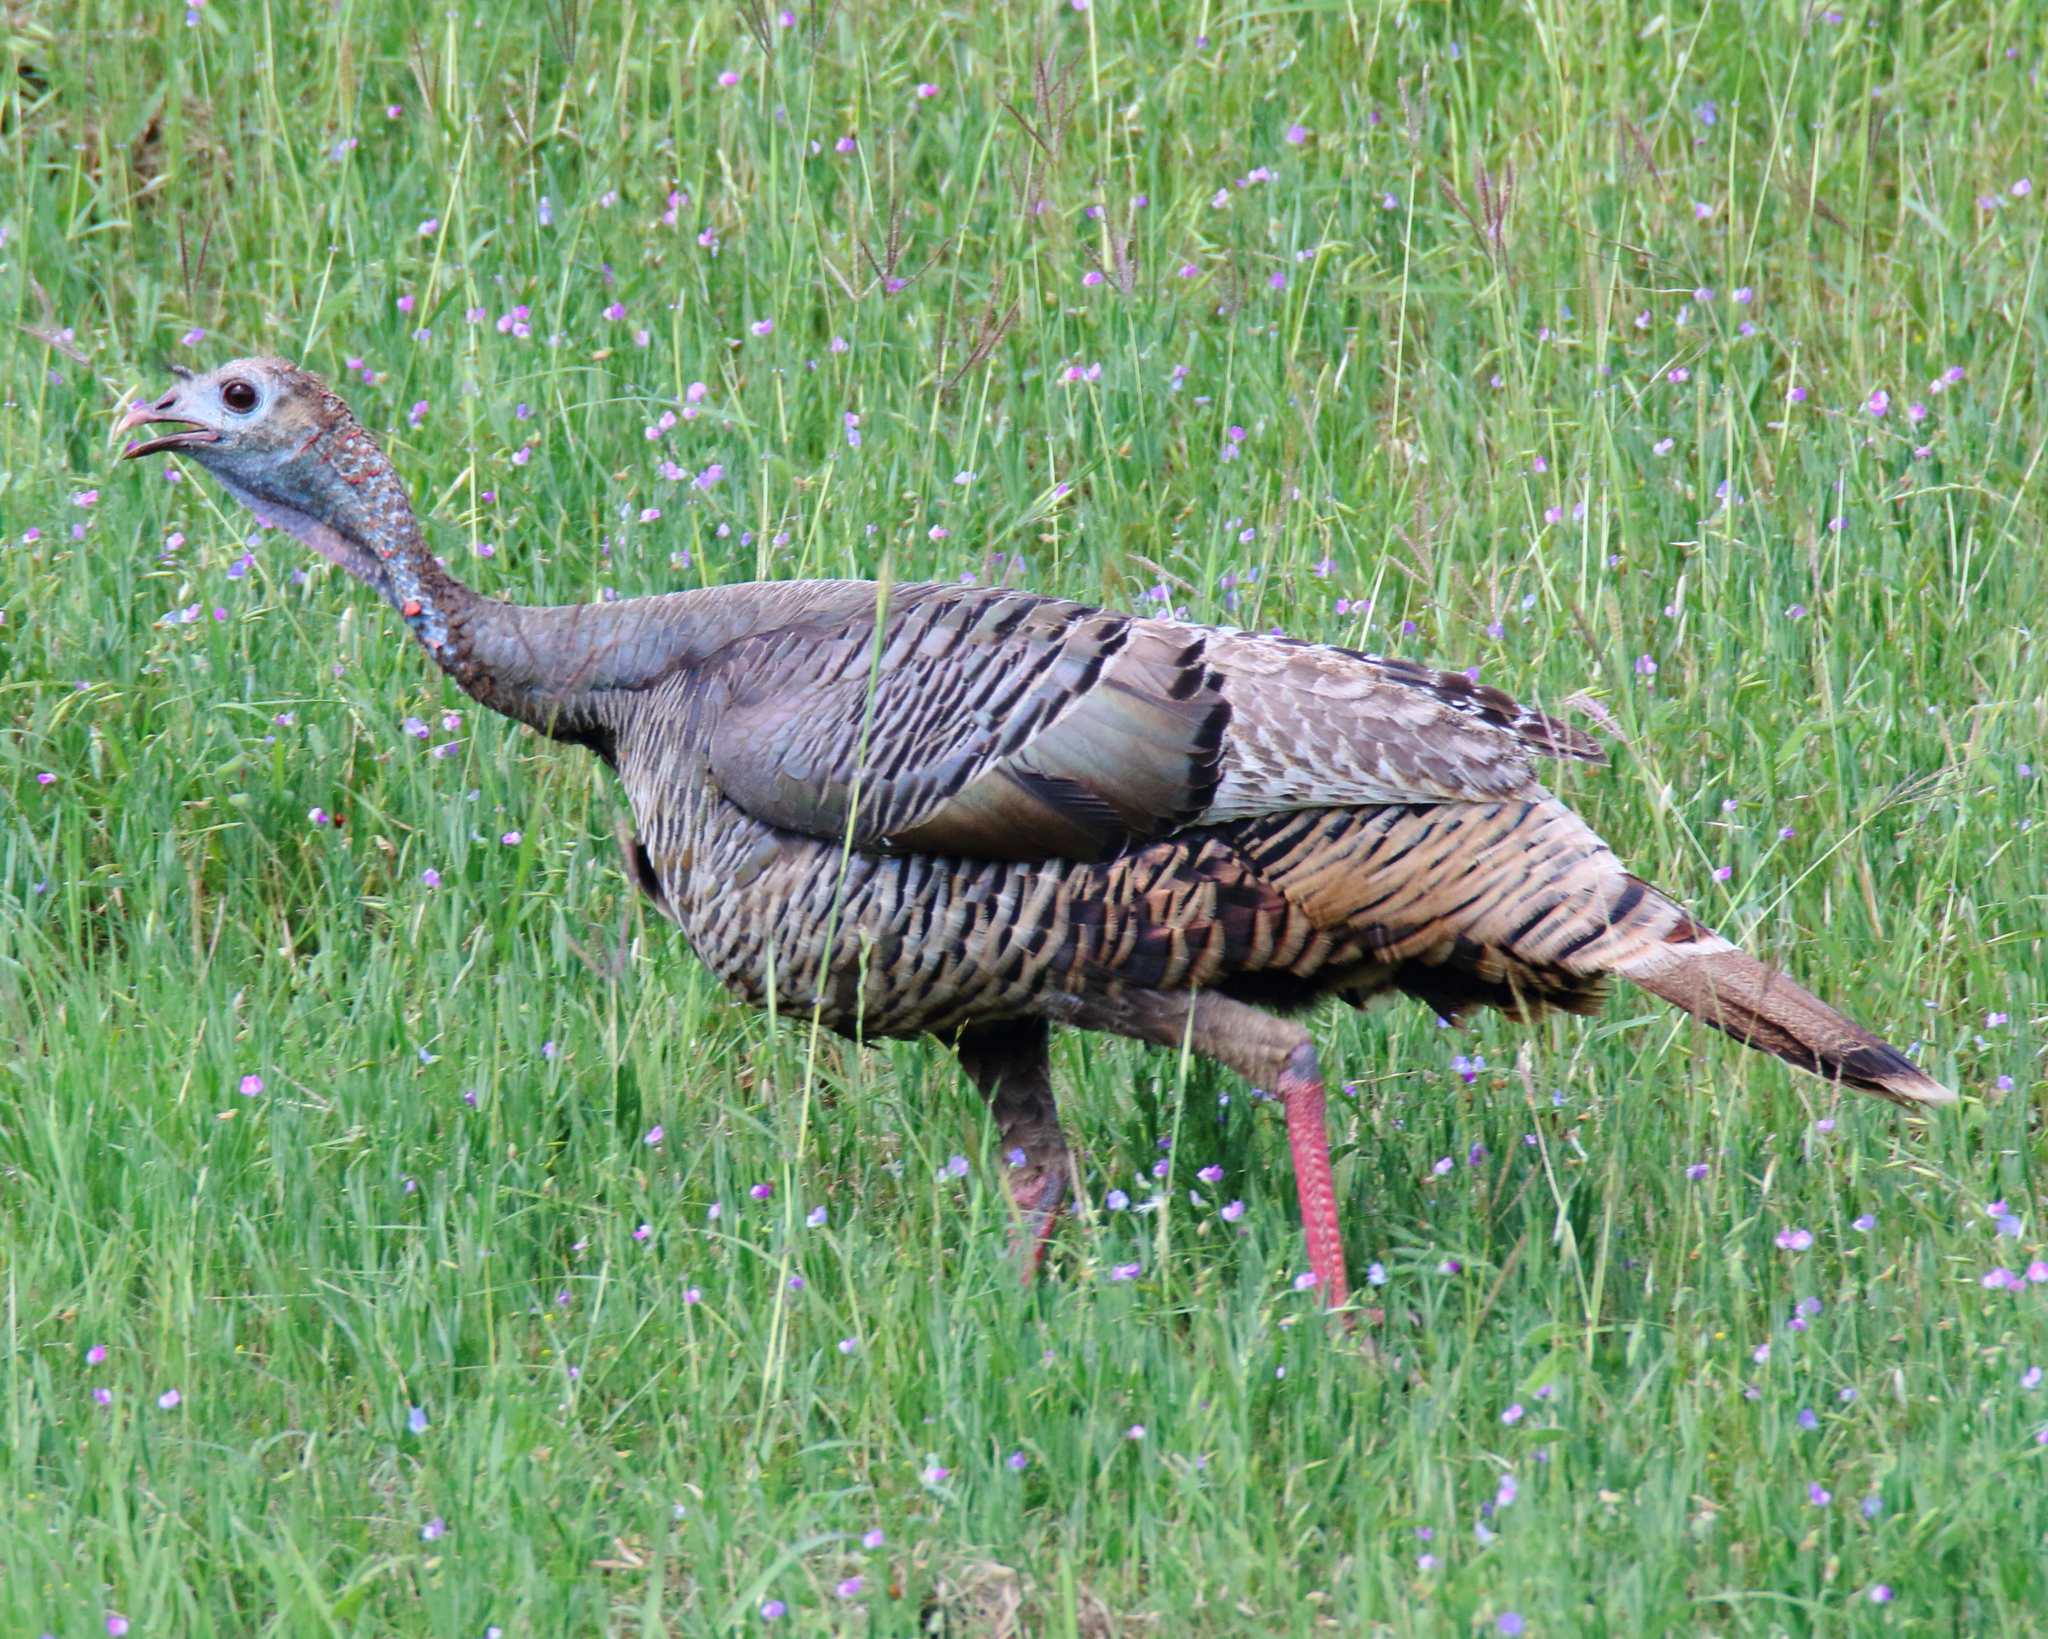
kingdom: Animalia
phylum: Chordata
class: Aves
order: Galliformes
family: Phasianidae
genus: Meleagris
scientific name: Meleagris gallopavo
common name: Wild turkey
